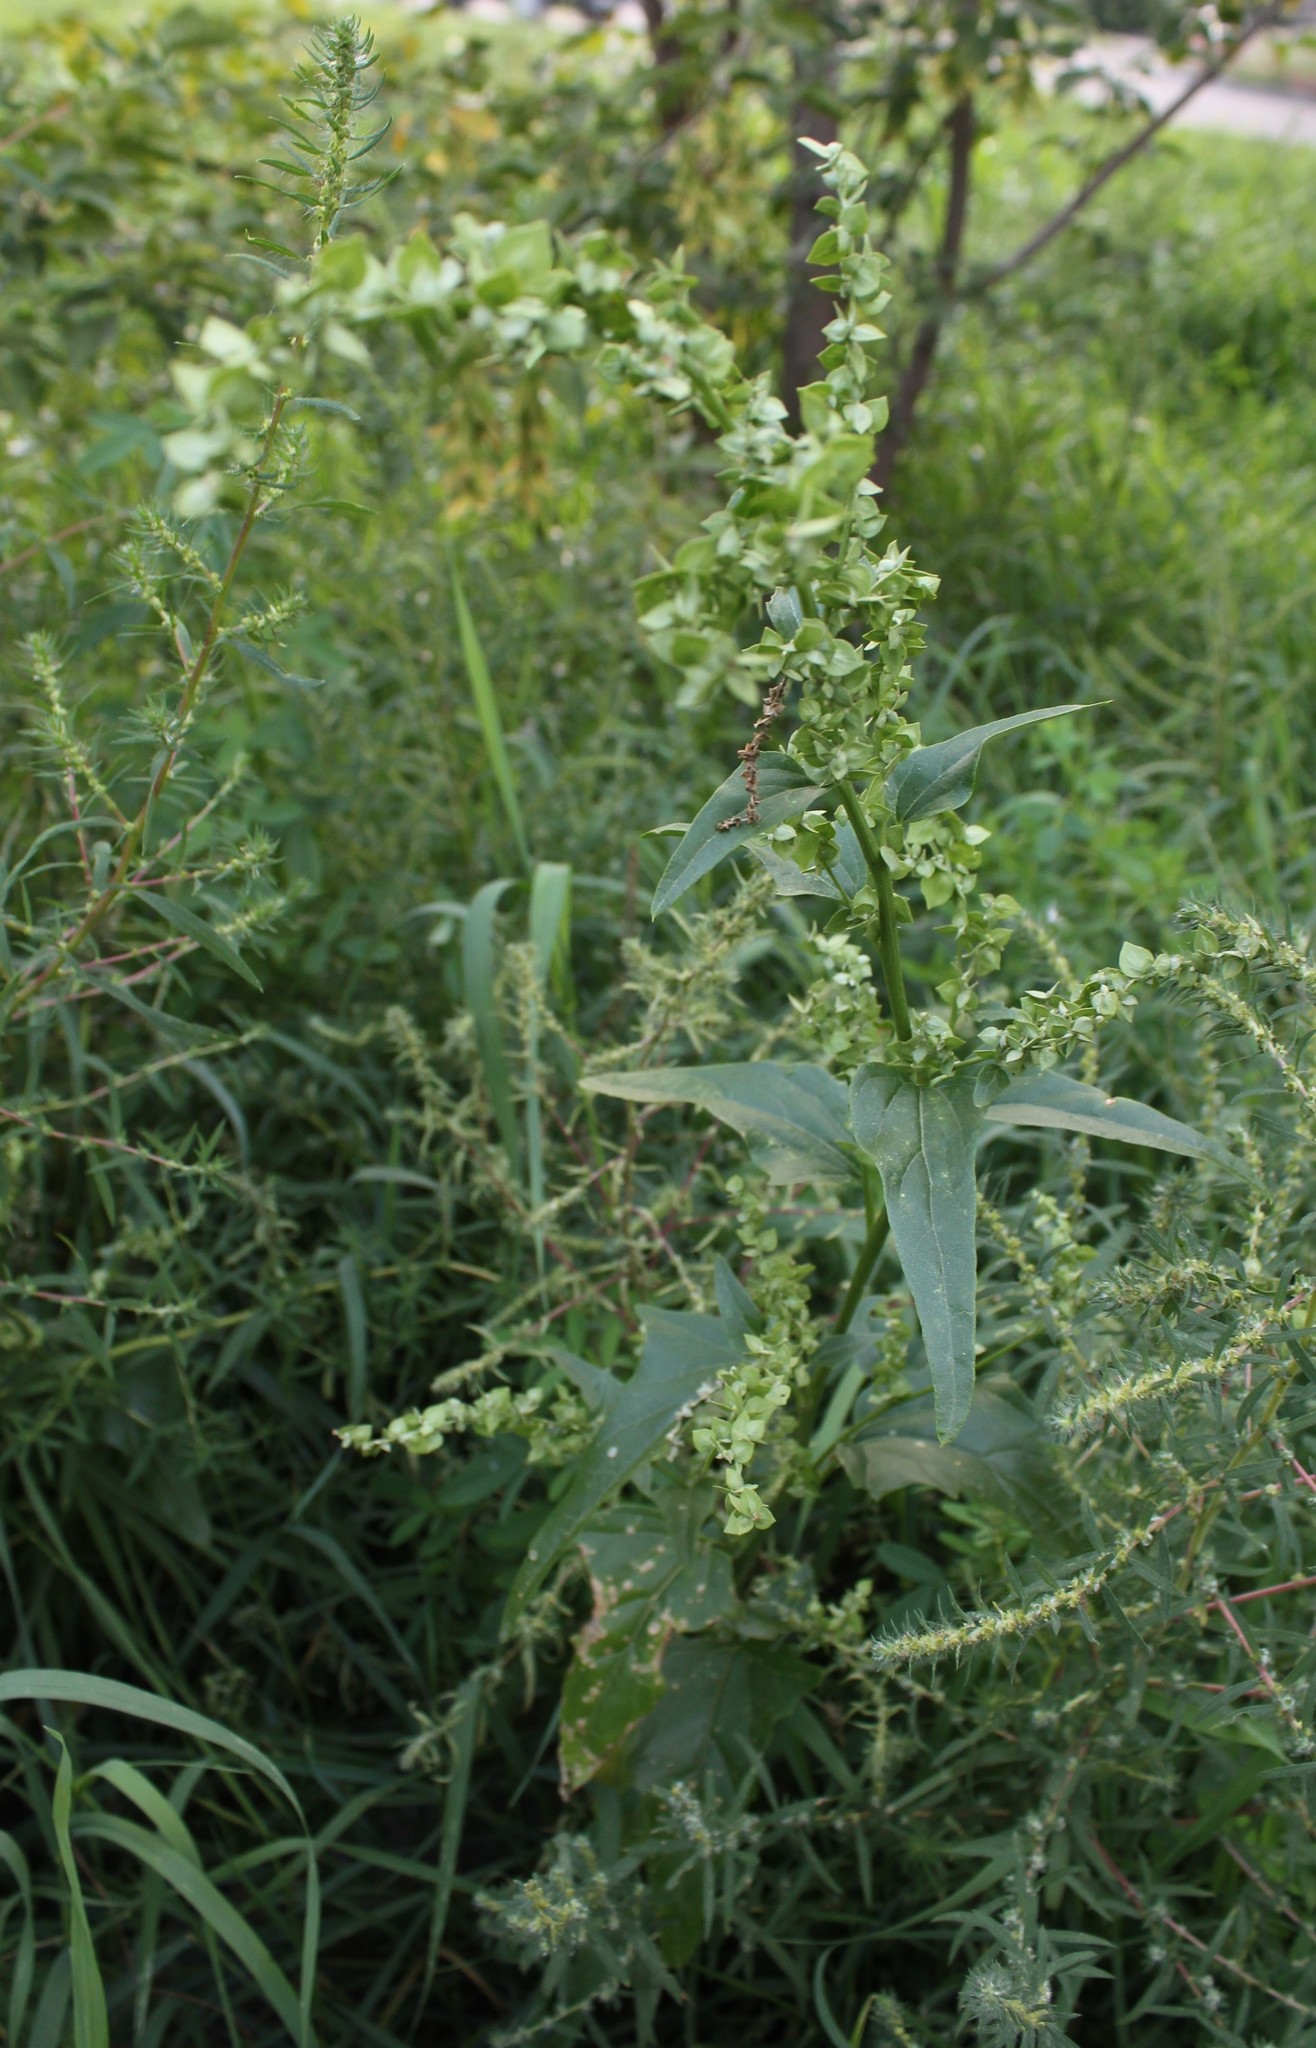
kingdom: Plantae
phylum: Tracheophyta
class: Magnoliopsida
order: Caryophyllales
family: Amaranthaceae
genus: Atriplex
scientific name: Atriplex sagittata
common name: Purple orache
